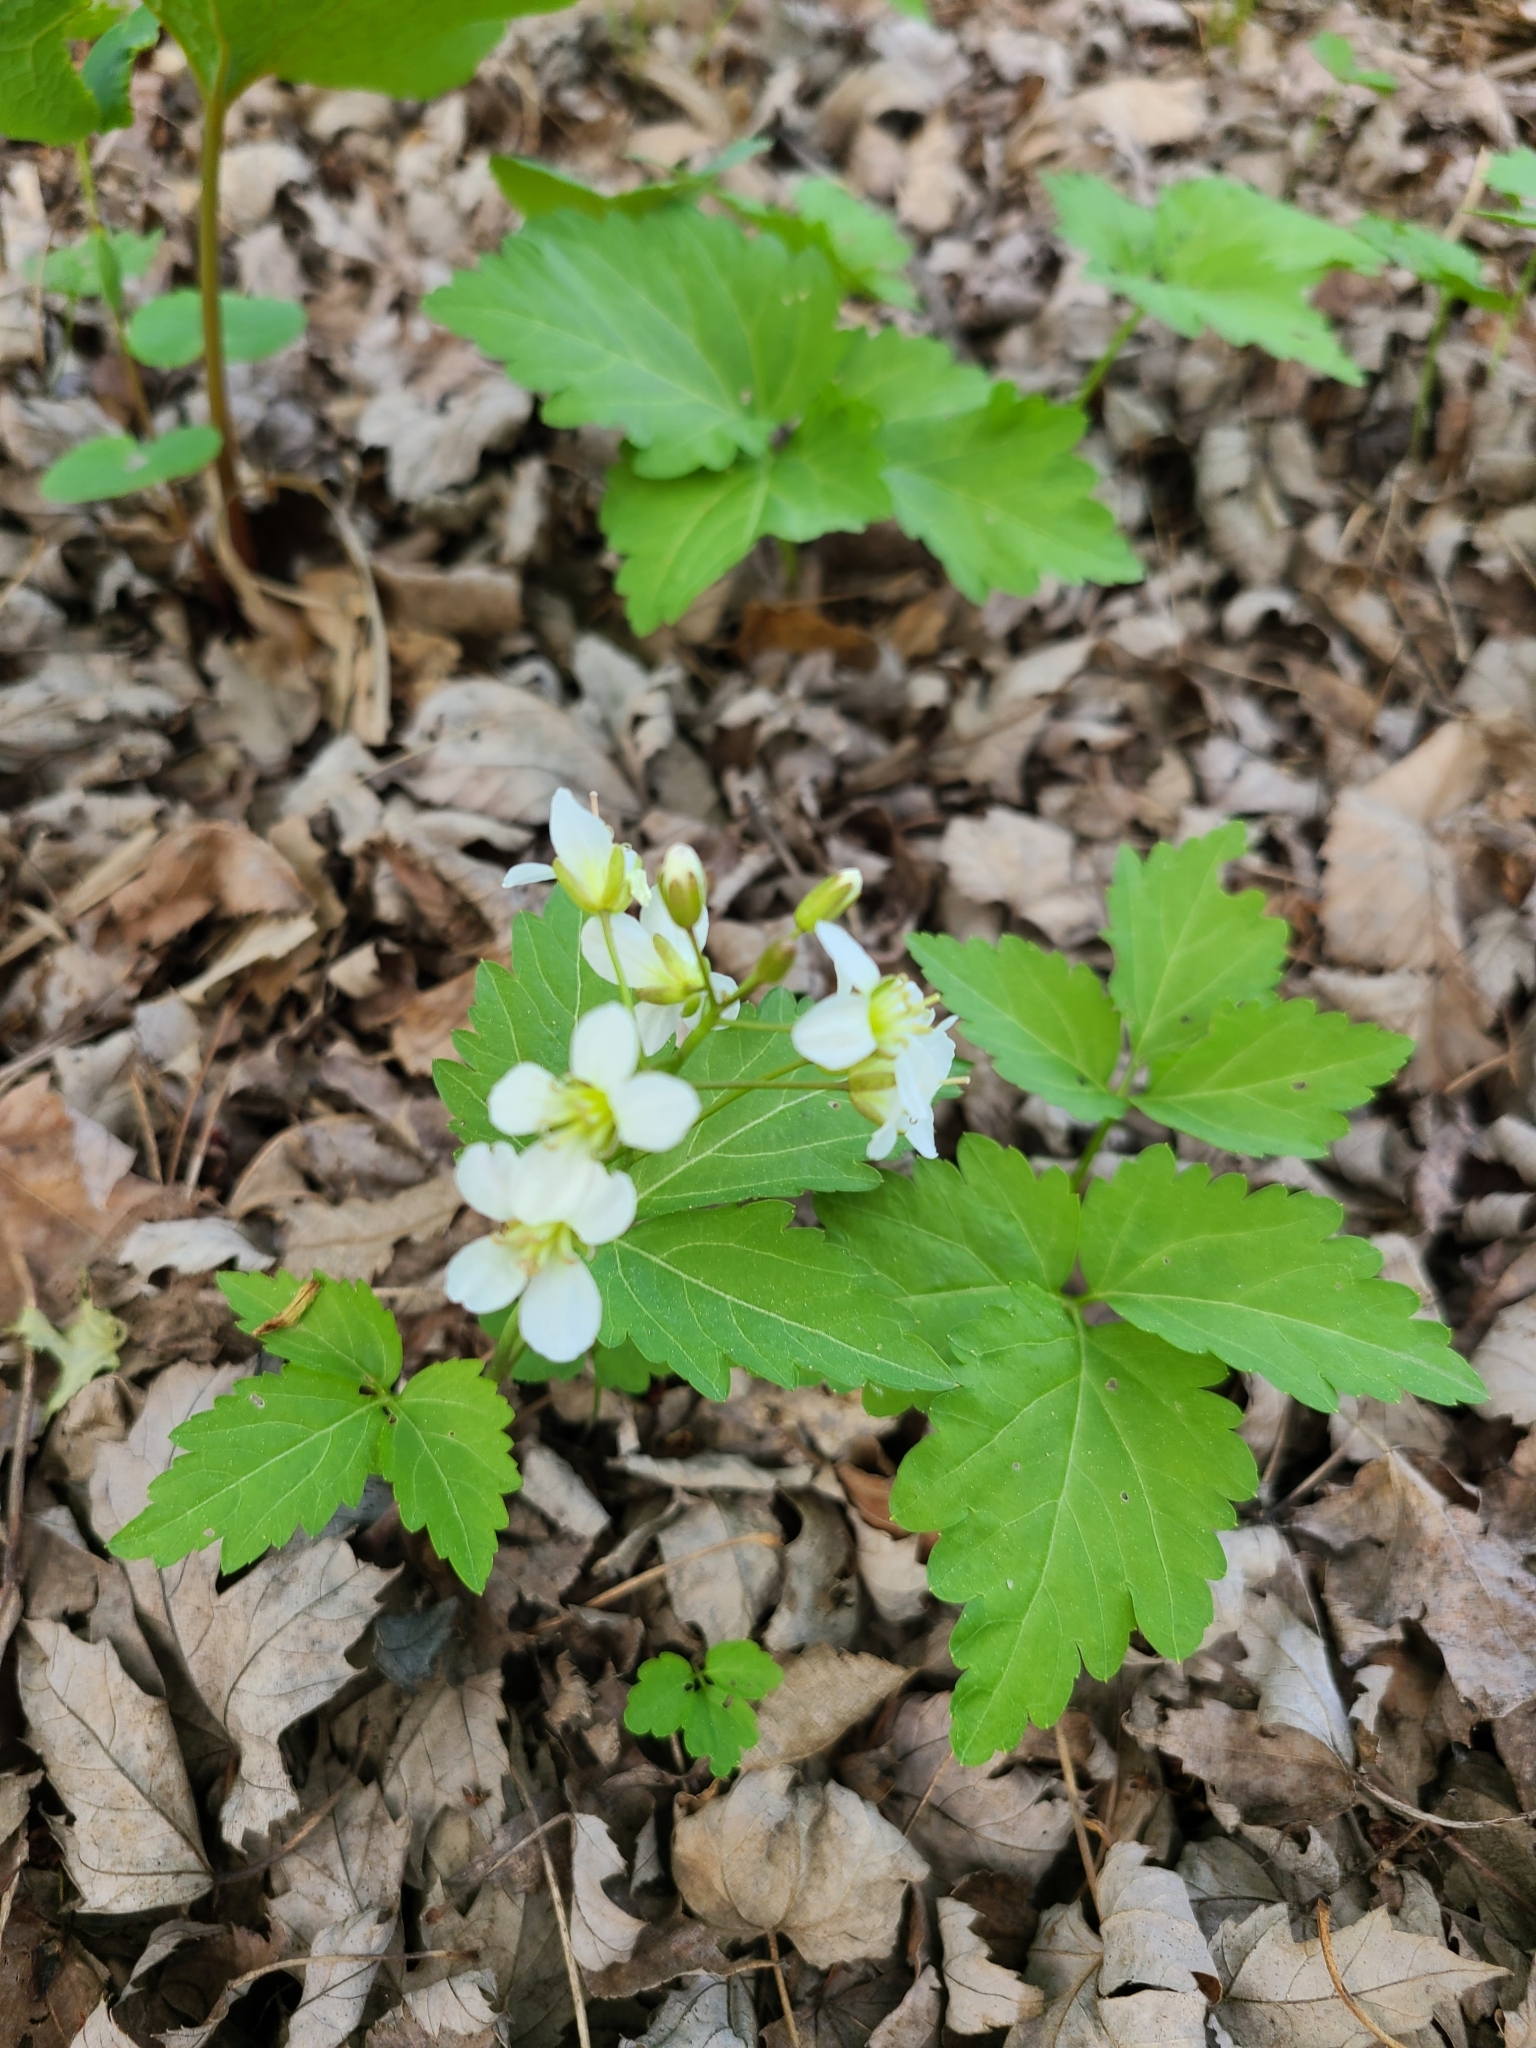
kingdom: Plantae
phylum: Tracheophyta
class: Magnoliopsida
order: Brassicales
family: Brassicaceae
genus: Cardamine
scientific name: Cardamine diphylla
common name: Broad-leaved toothwort
